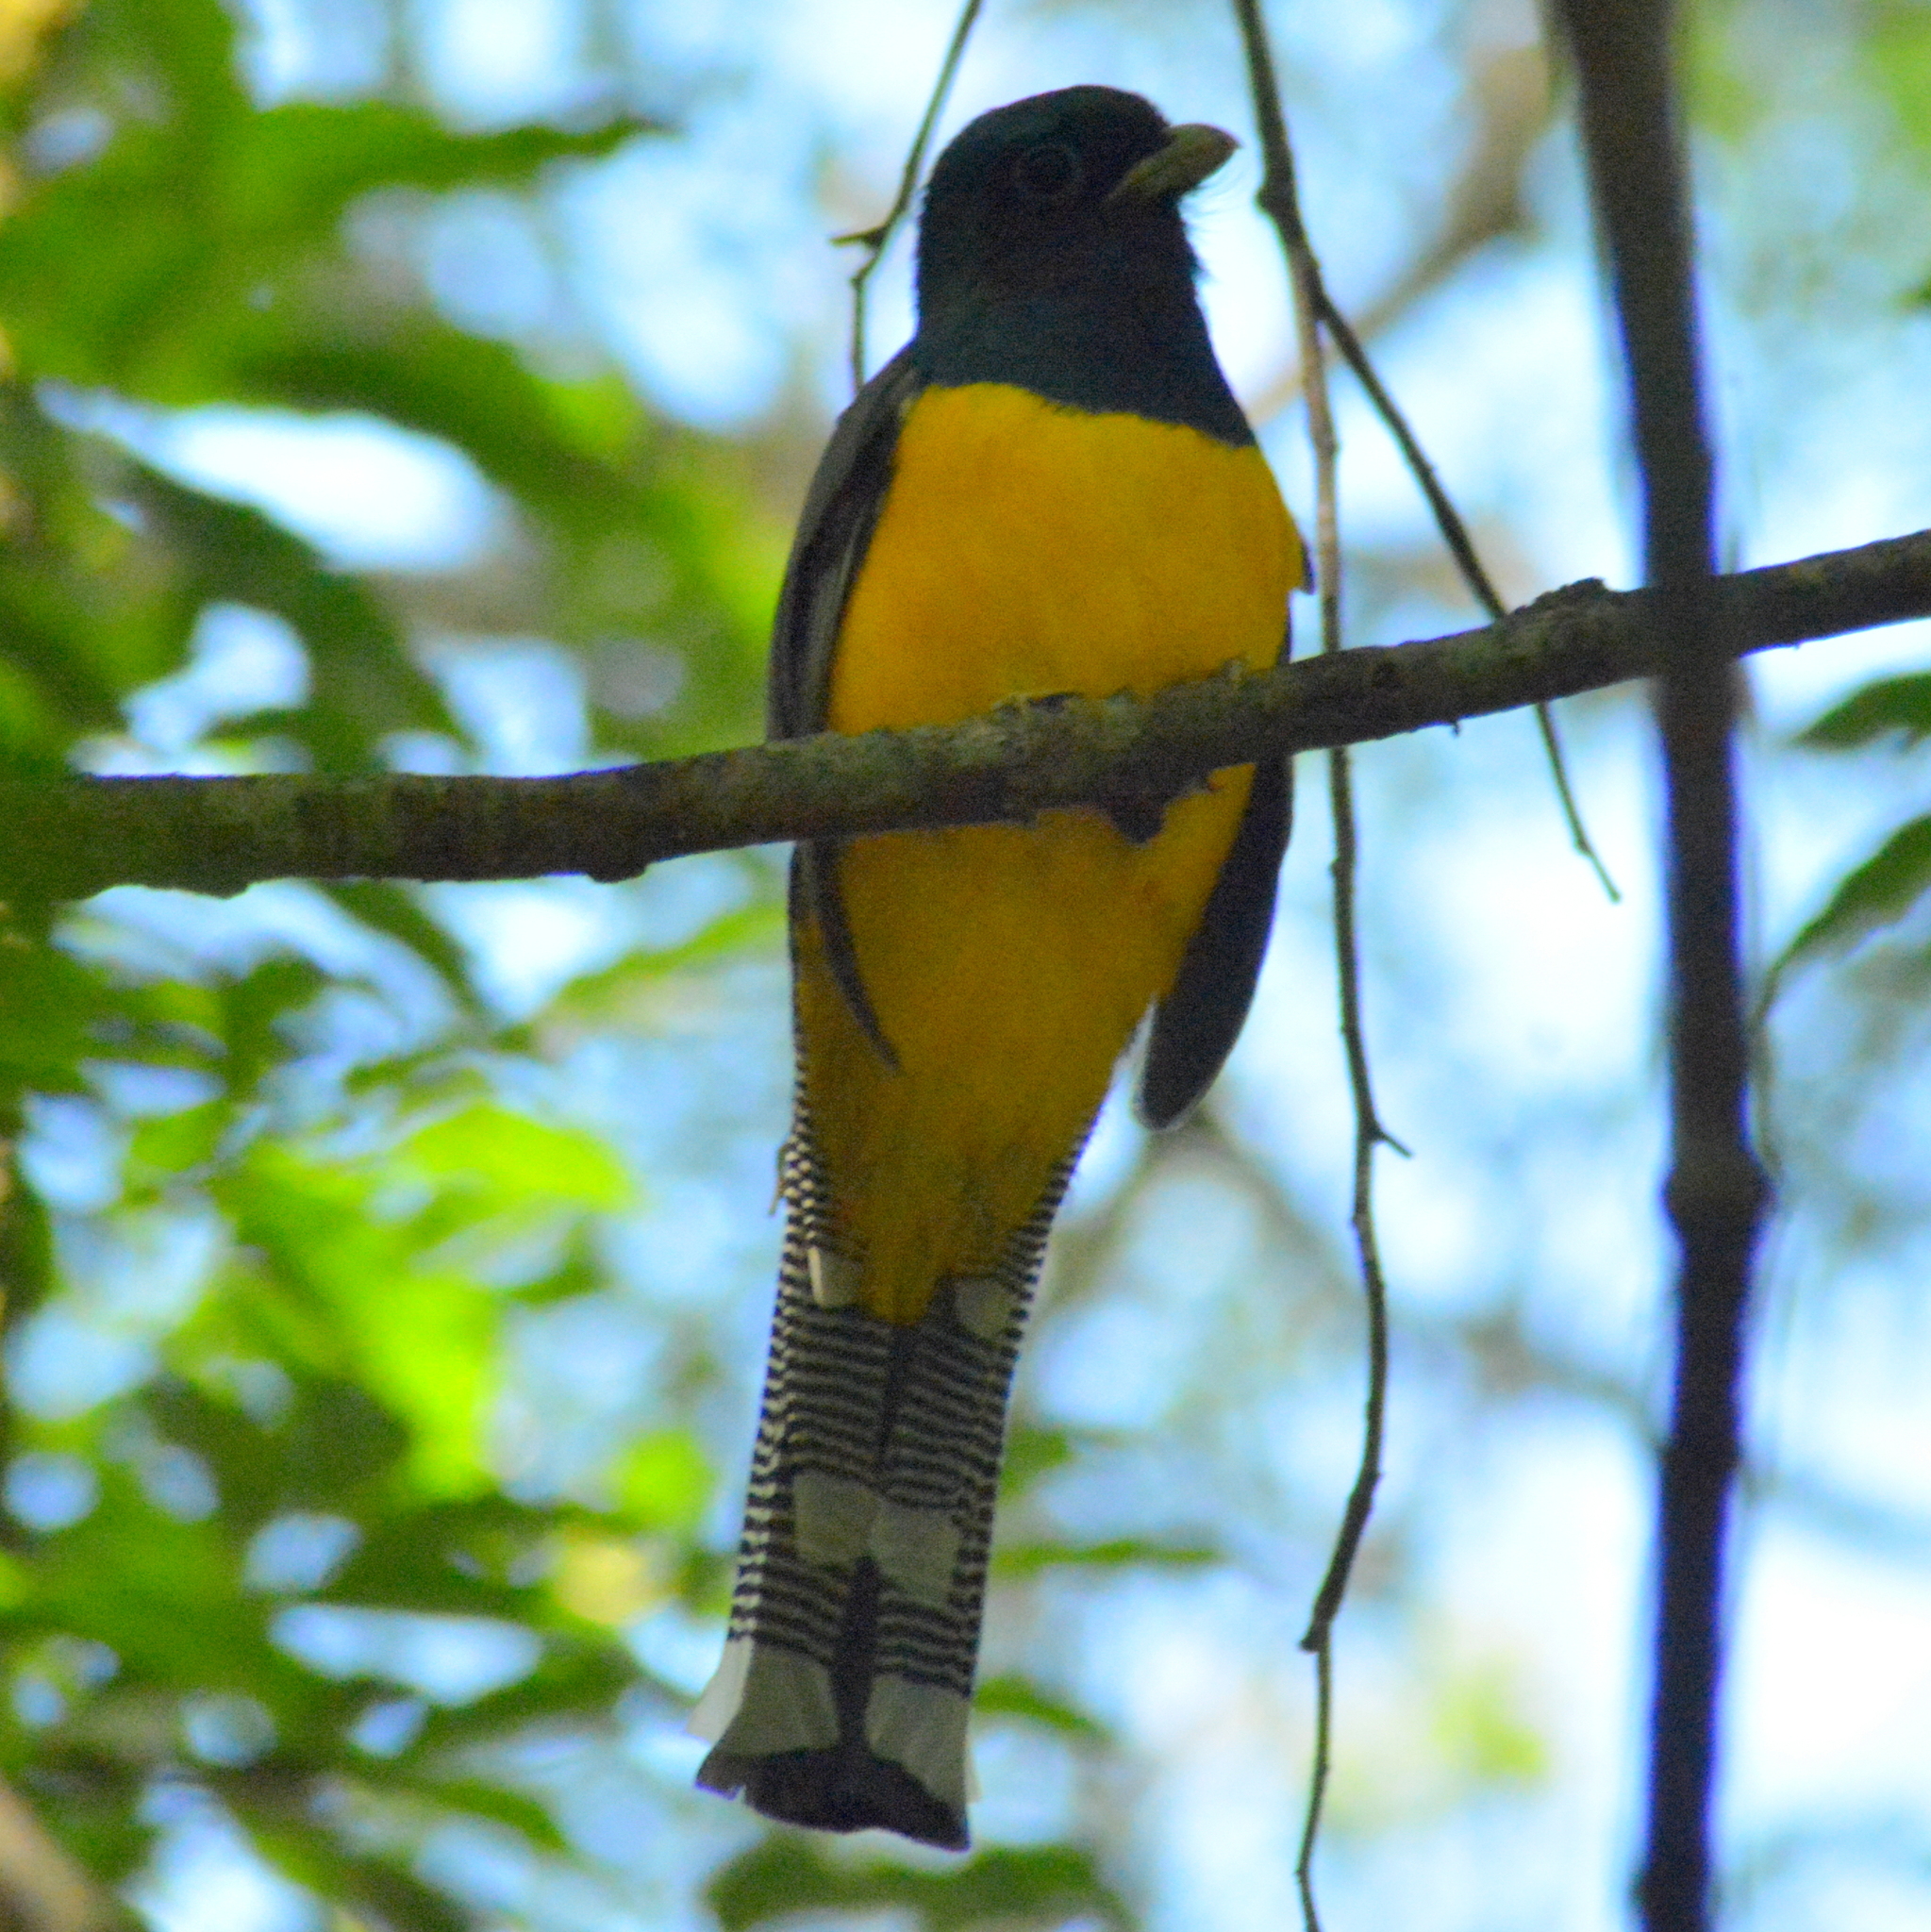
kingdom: Animalia
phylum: Chordata
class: Aves
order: Trogoniformes
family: Trogonidae
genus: Trogon
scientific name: Trogon rufus
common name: Black-throated trogon
